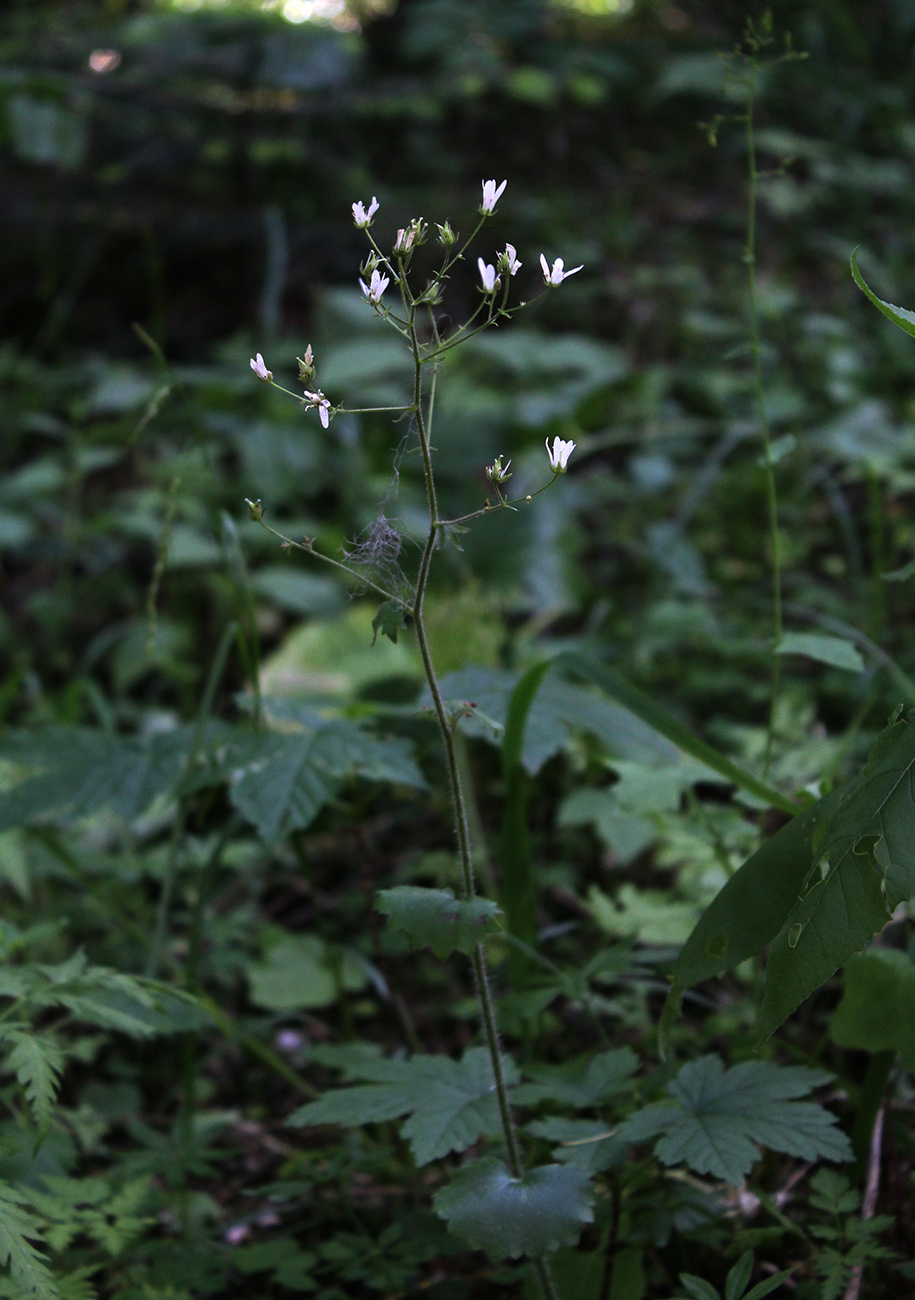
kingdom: Plantae
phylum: Tracheophyta
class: Magnoliopsida
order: Saxifragales
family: Saxifragaceae
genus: Saxifraga
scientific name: Saxifraga rotundifolia
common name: Round-leaved saxifrage
